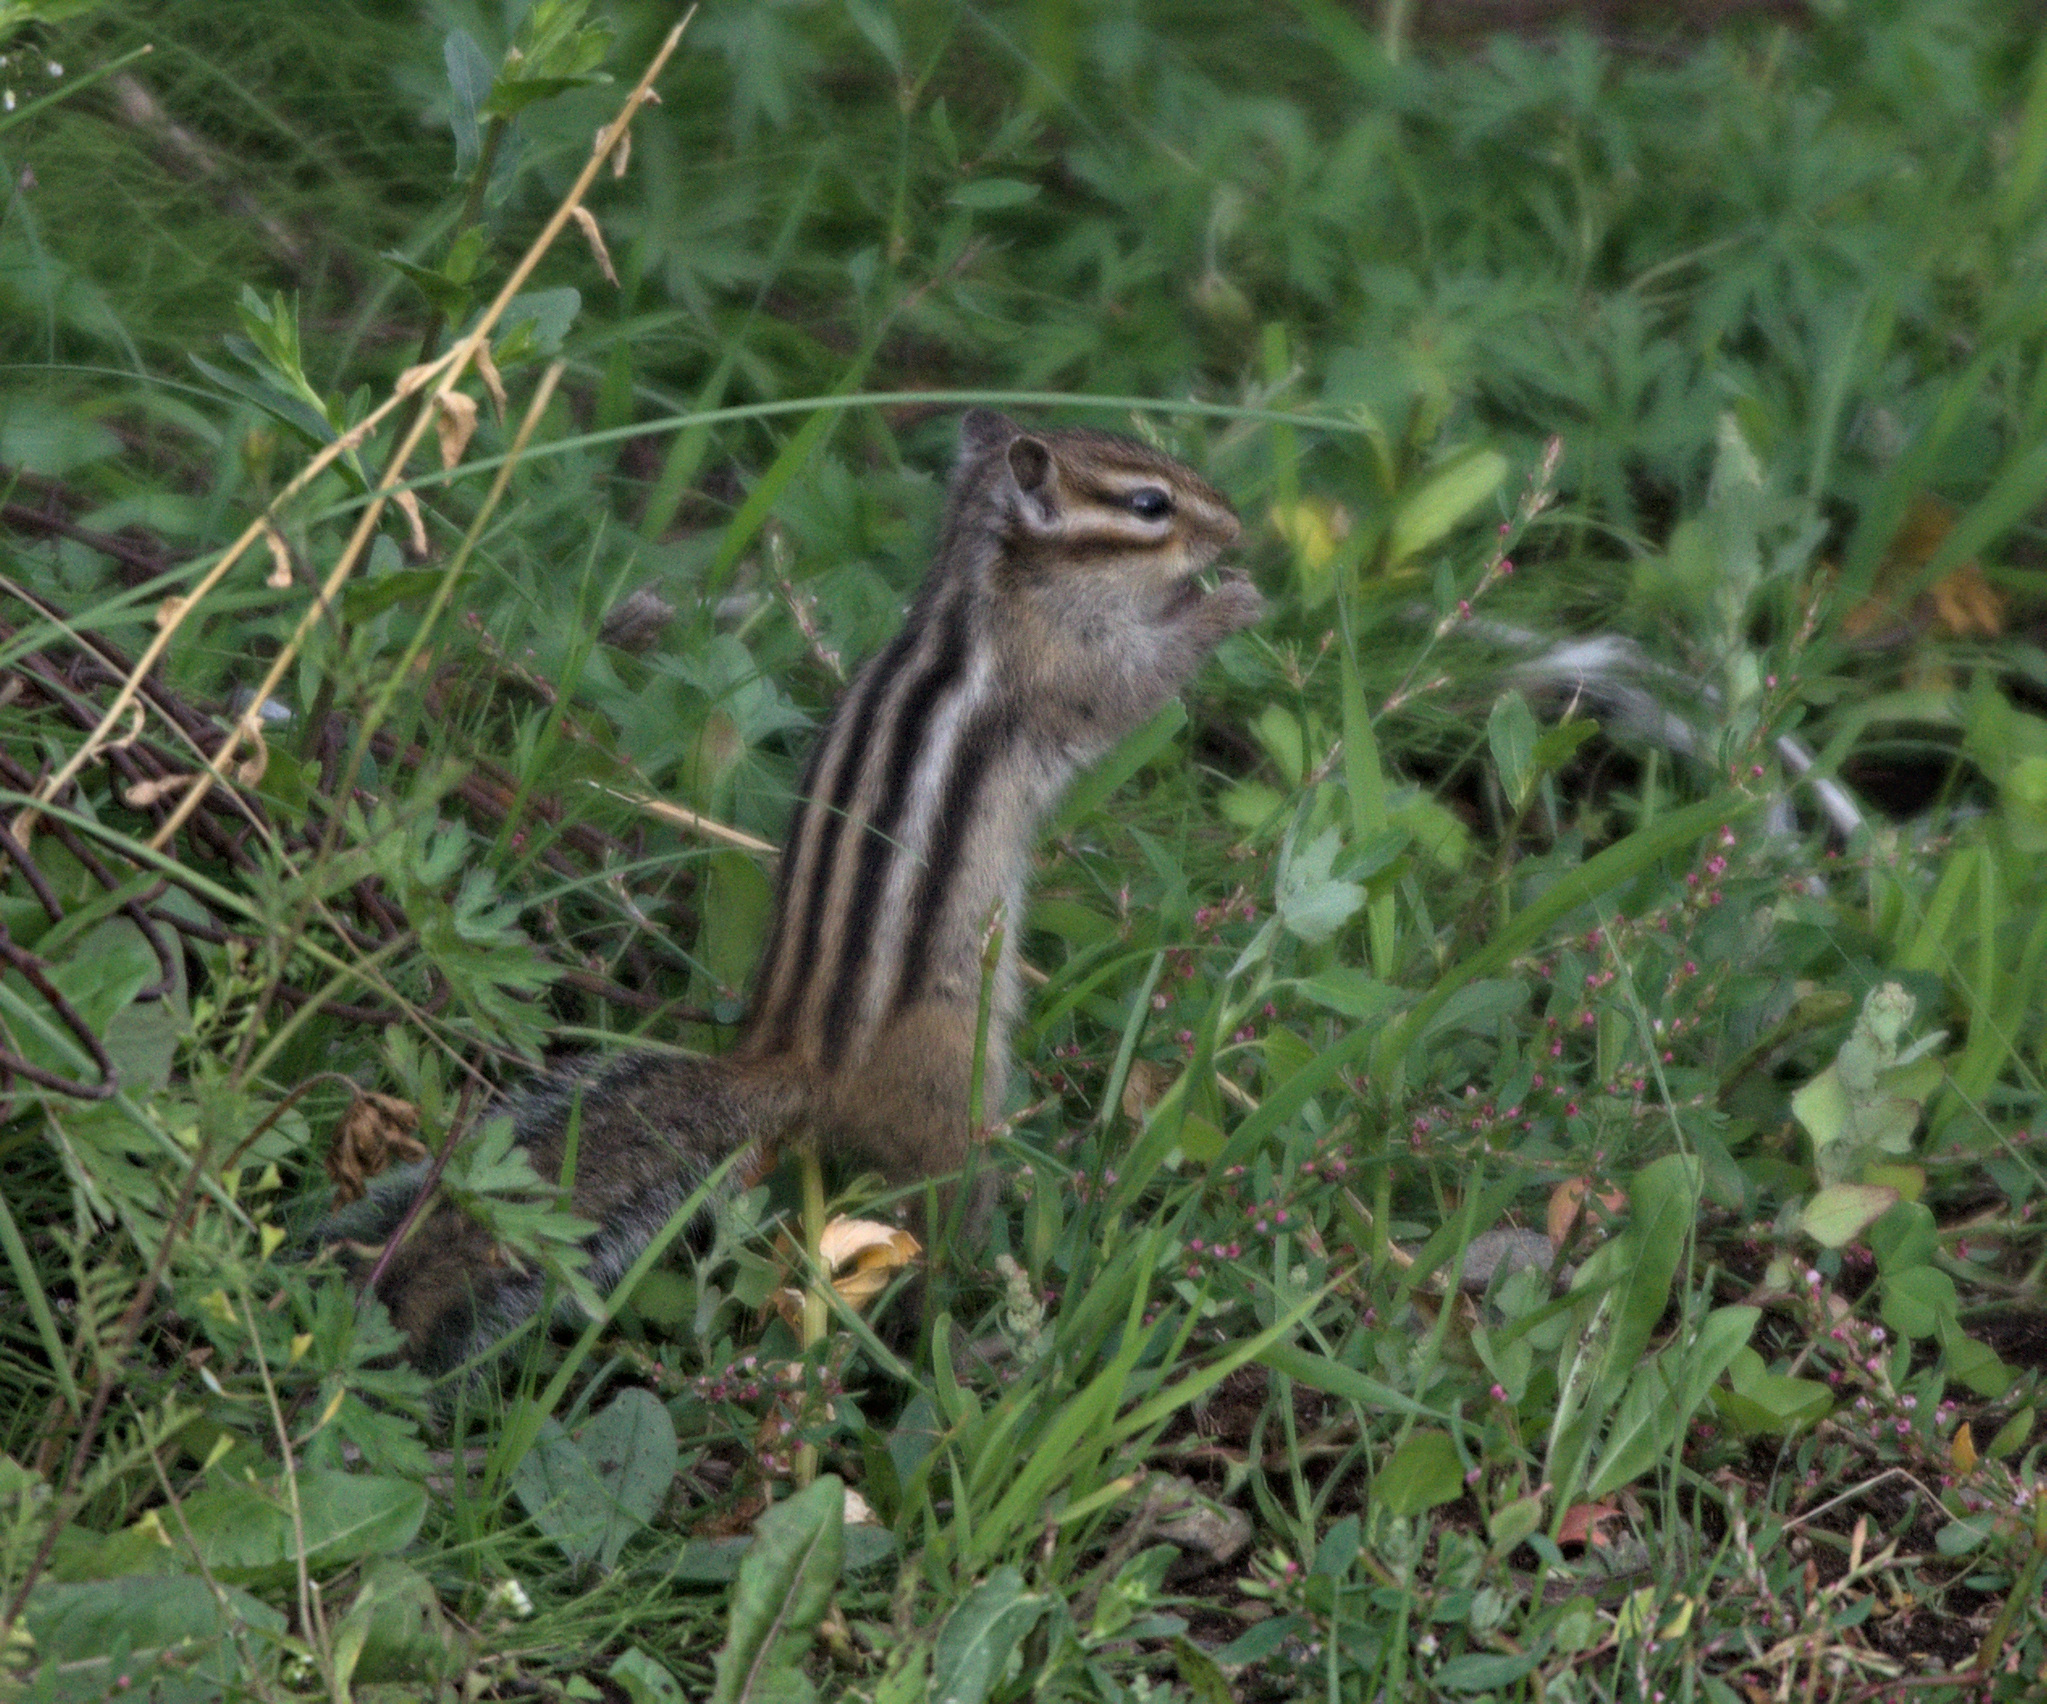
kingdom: Animalia
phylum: Chordata
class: Mammalia
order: Rodentia
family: Sciuridae
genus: Tamias
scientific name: Tamias sibiricus
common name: Siberian chipmunk
